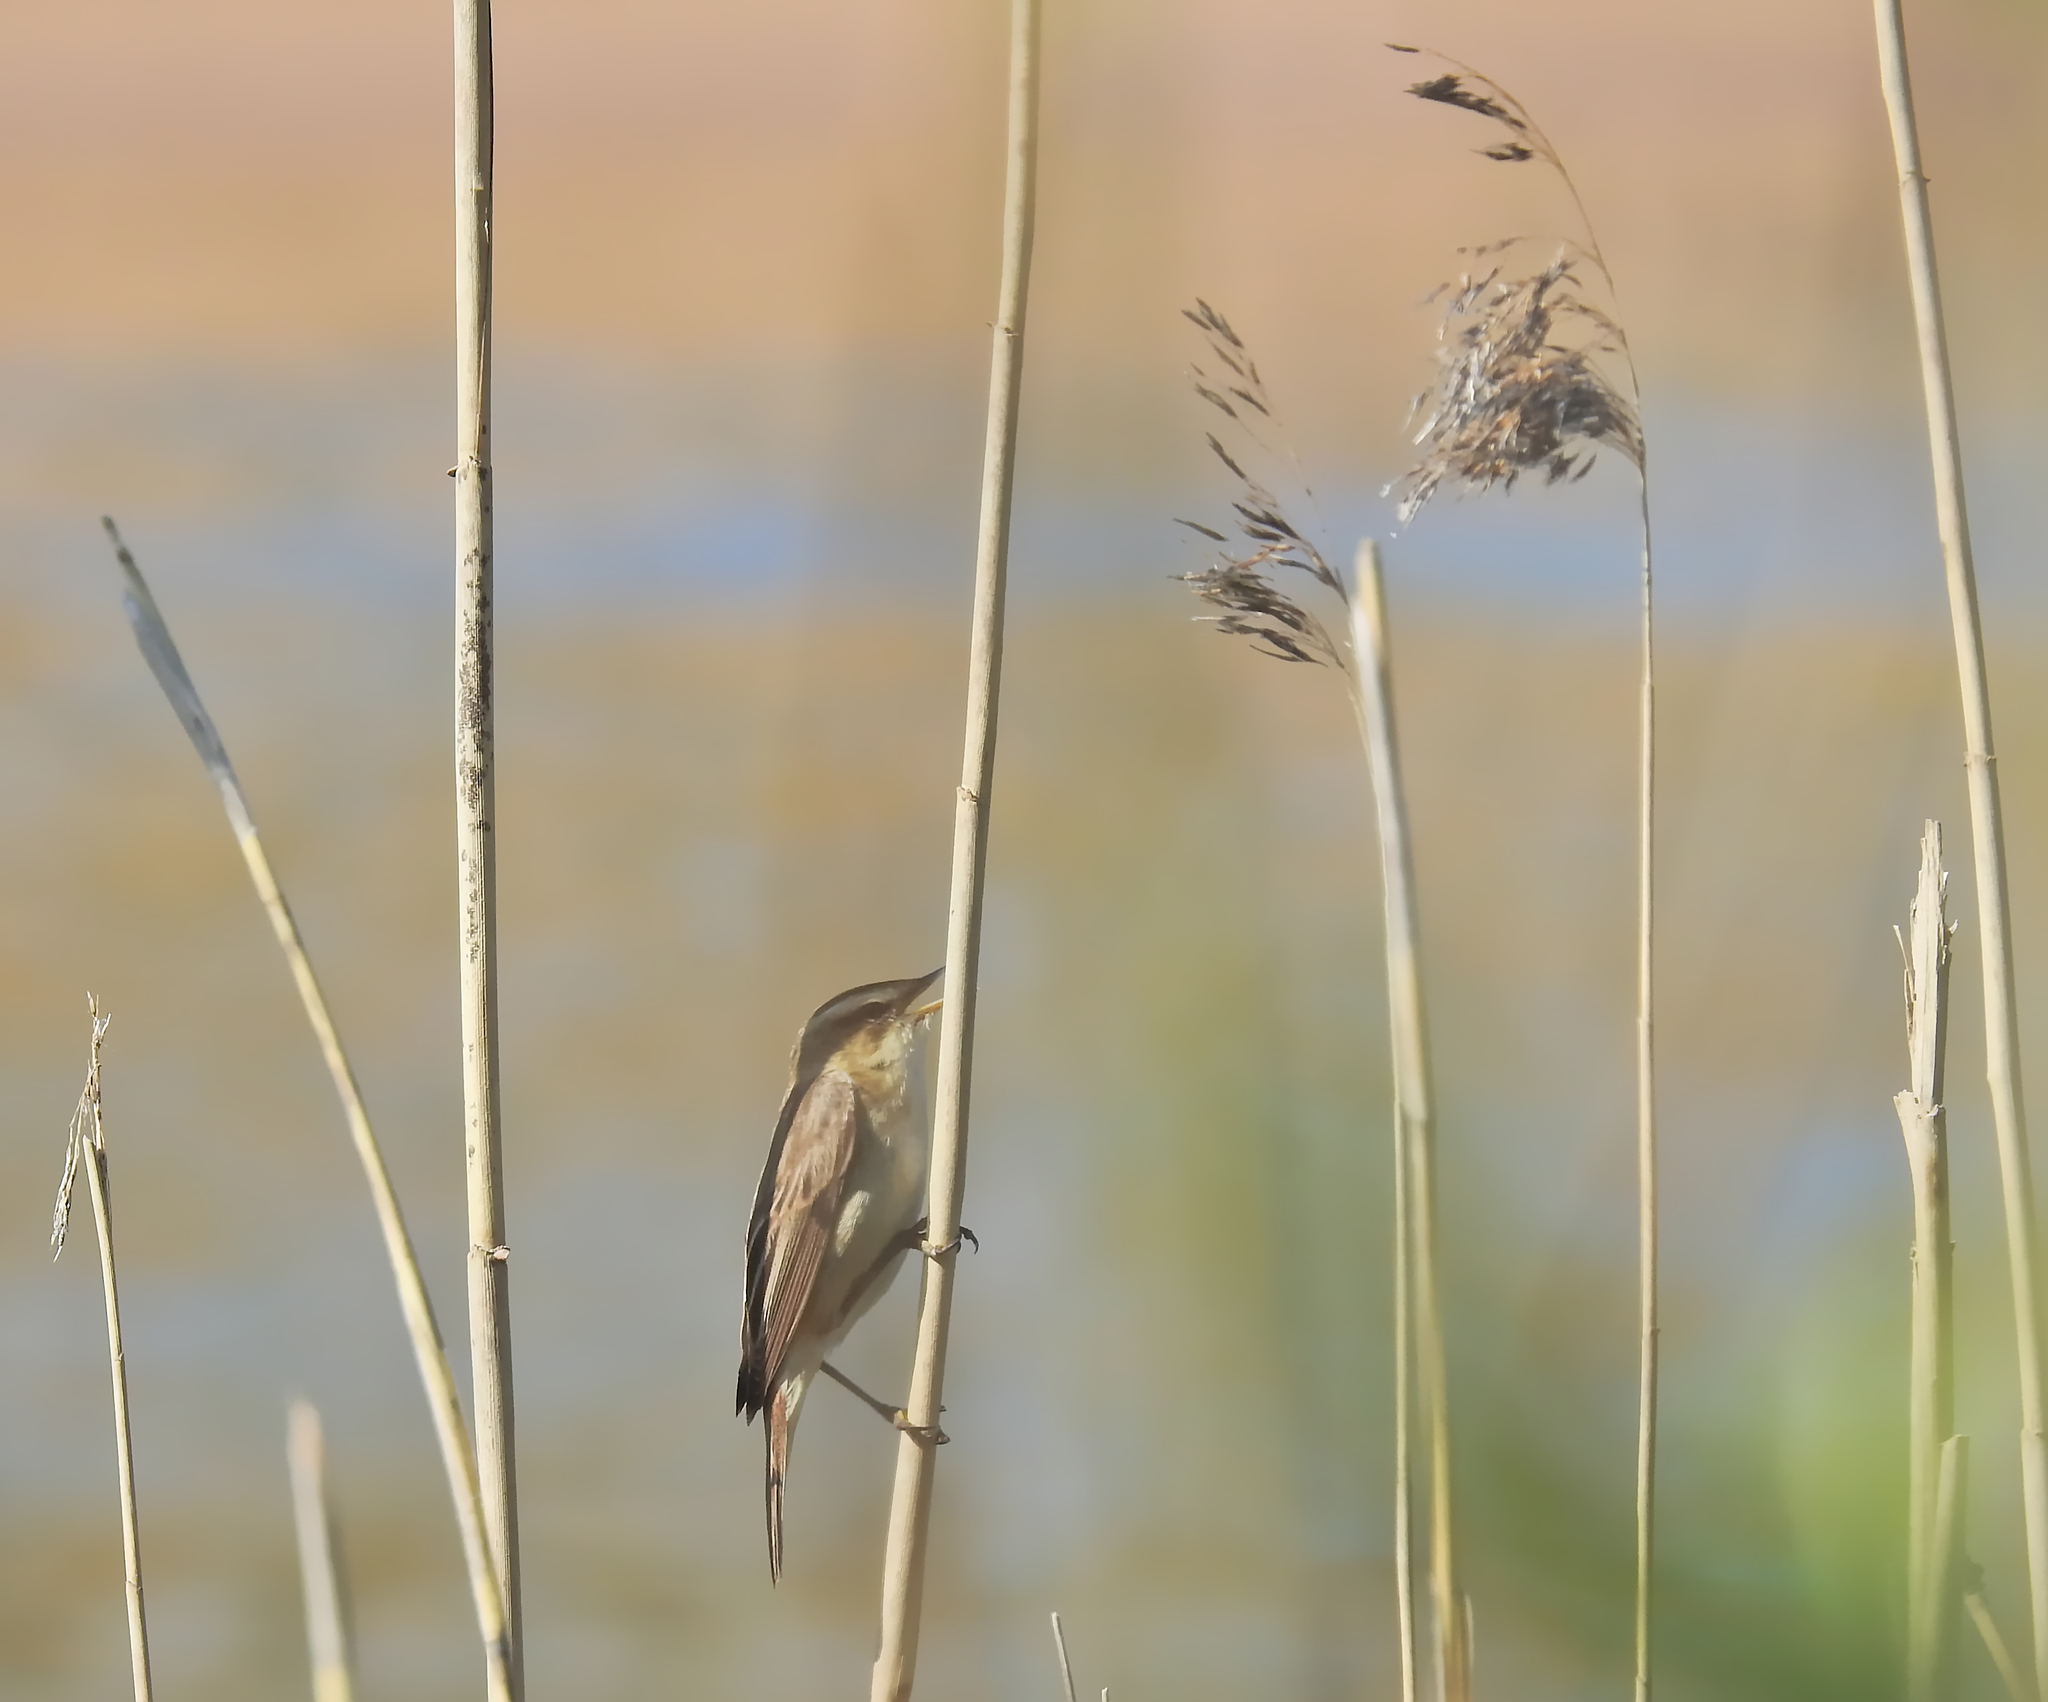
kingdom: Animalia
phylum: Chordata
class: Aves
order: Passeriformes
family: Acrocephalidae
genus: Acrocephalus
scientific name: Acrocephalus schoenobaenus
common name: Sedge warbler
